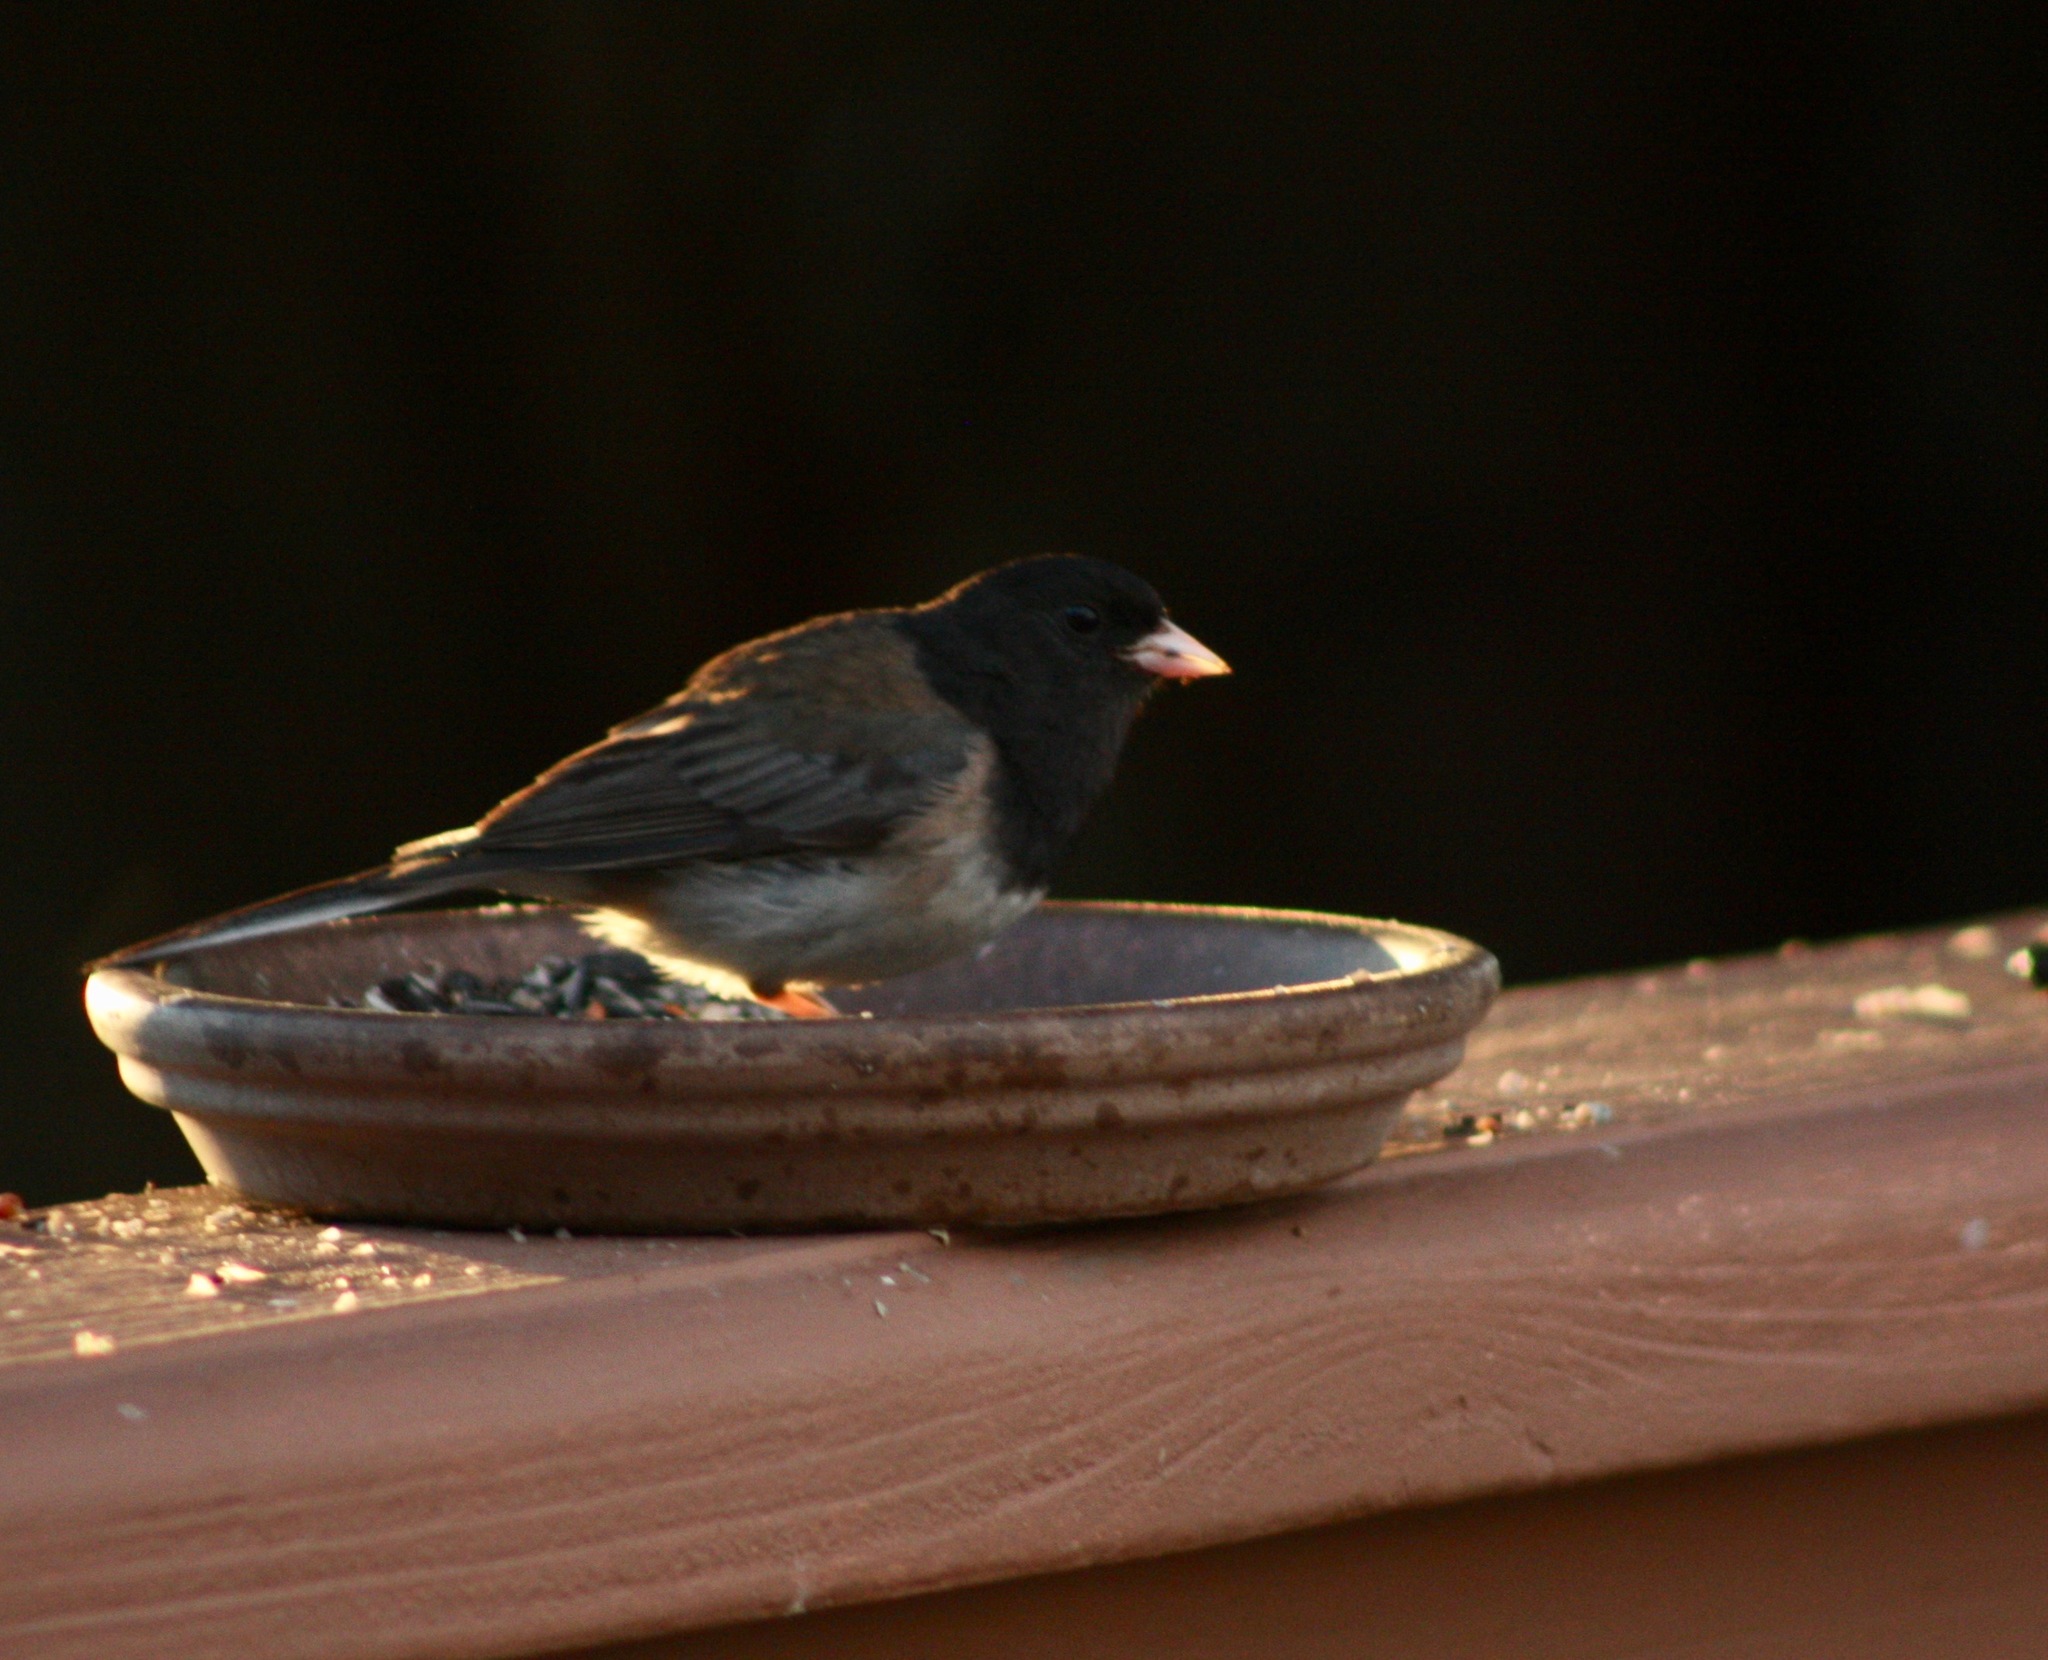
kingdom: Animalia
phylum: Chordata
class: Aves
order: Passeriformes
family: Passerellidae
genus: Junco
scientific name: Junco hyemalis
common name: Dark-eyed junco
